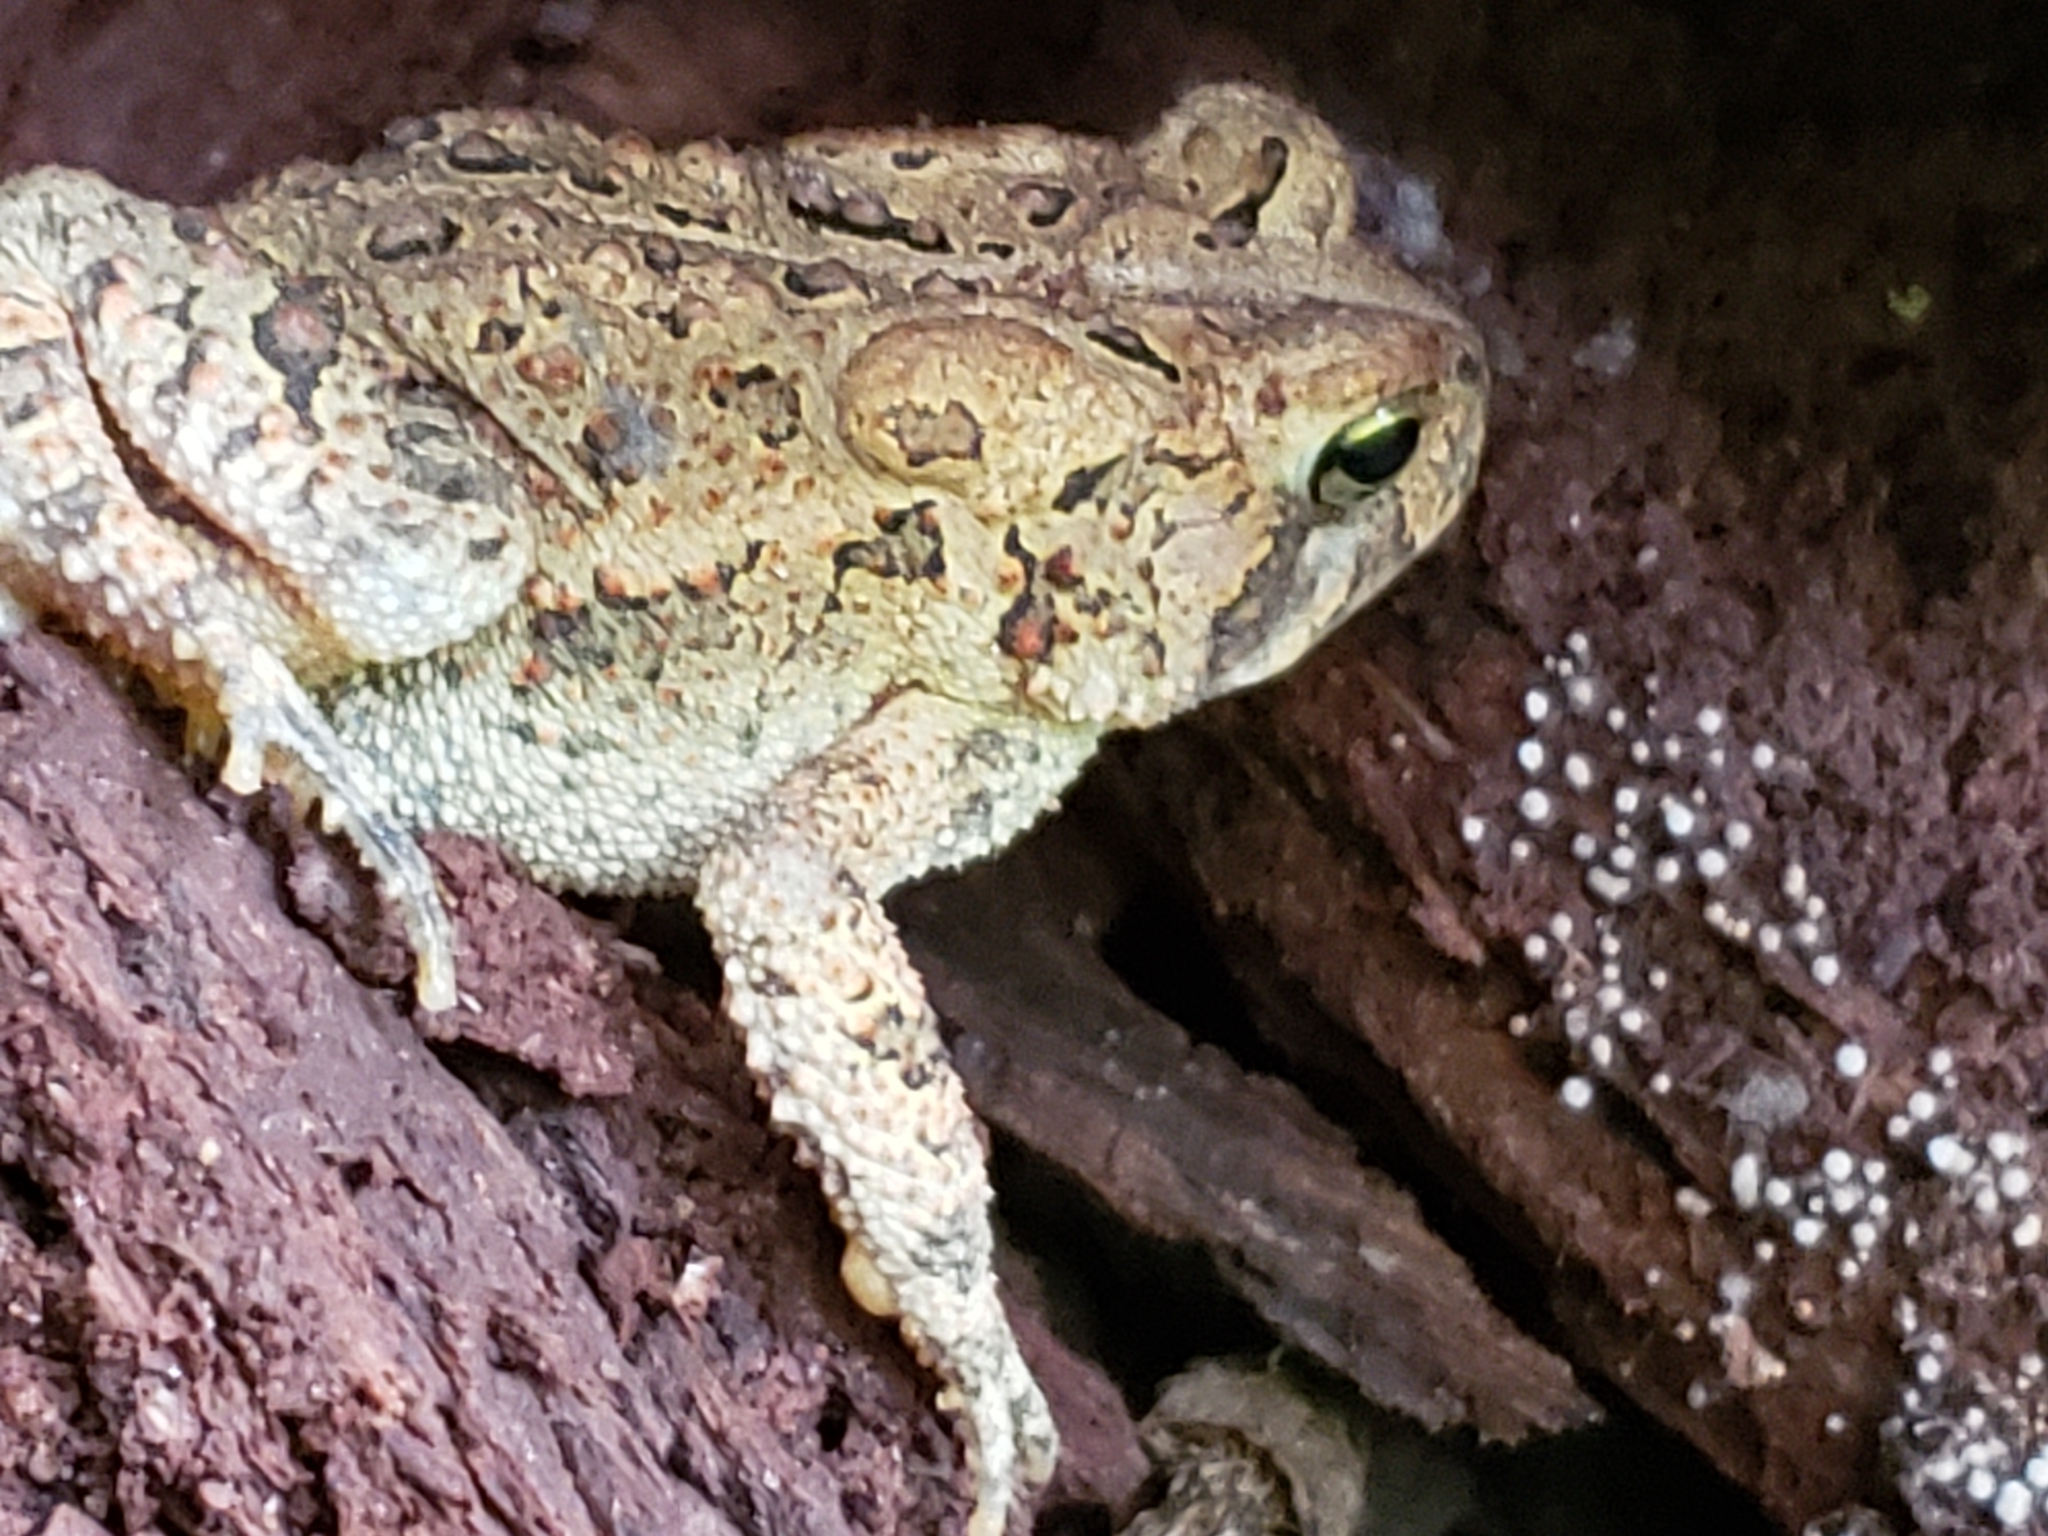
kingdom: Animalia
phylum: Chordata
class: Amphibia
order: Anura
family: Bufonidae
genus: Anaxyrus
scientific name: Anaxyrus americanus
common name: American toad
